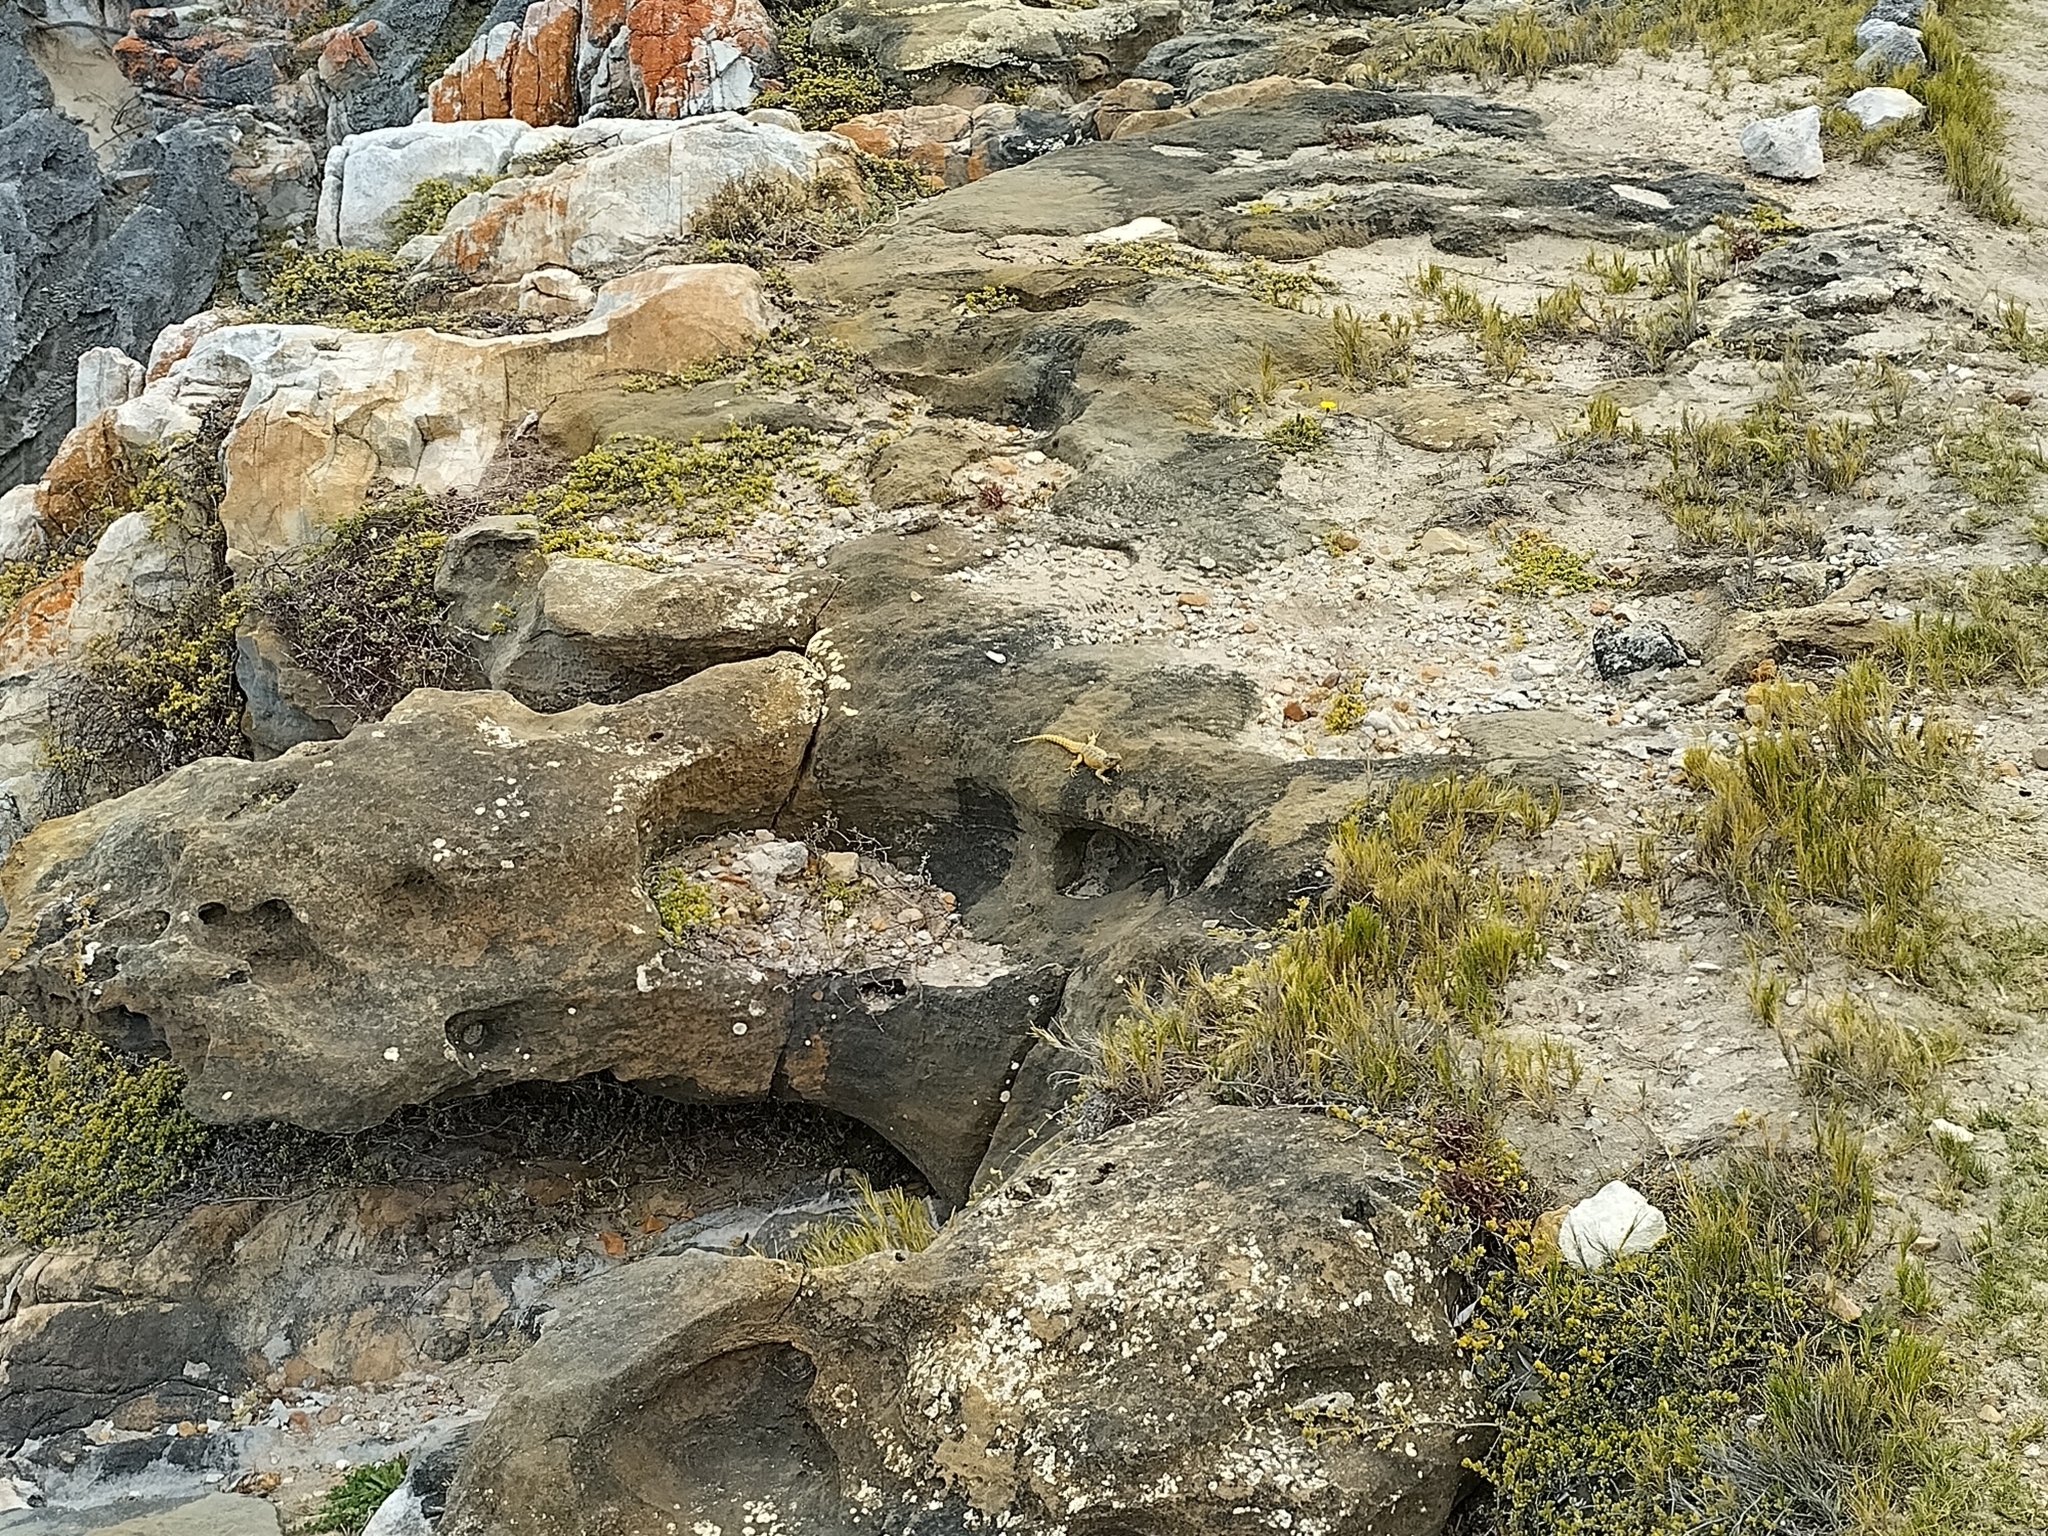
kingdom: Animalia
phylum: Chordata
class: Squamata
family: Cordylidae
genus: Cordylus
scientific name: Cordylus cordylus
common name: Cape girdled lizard
